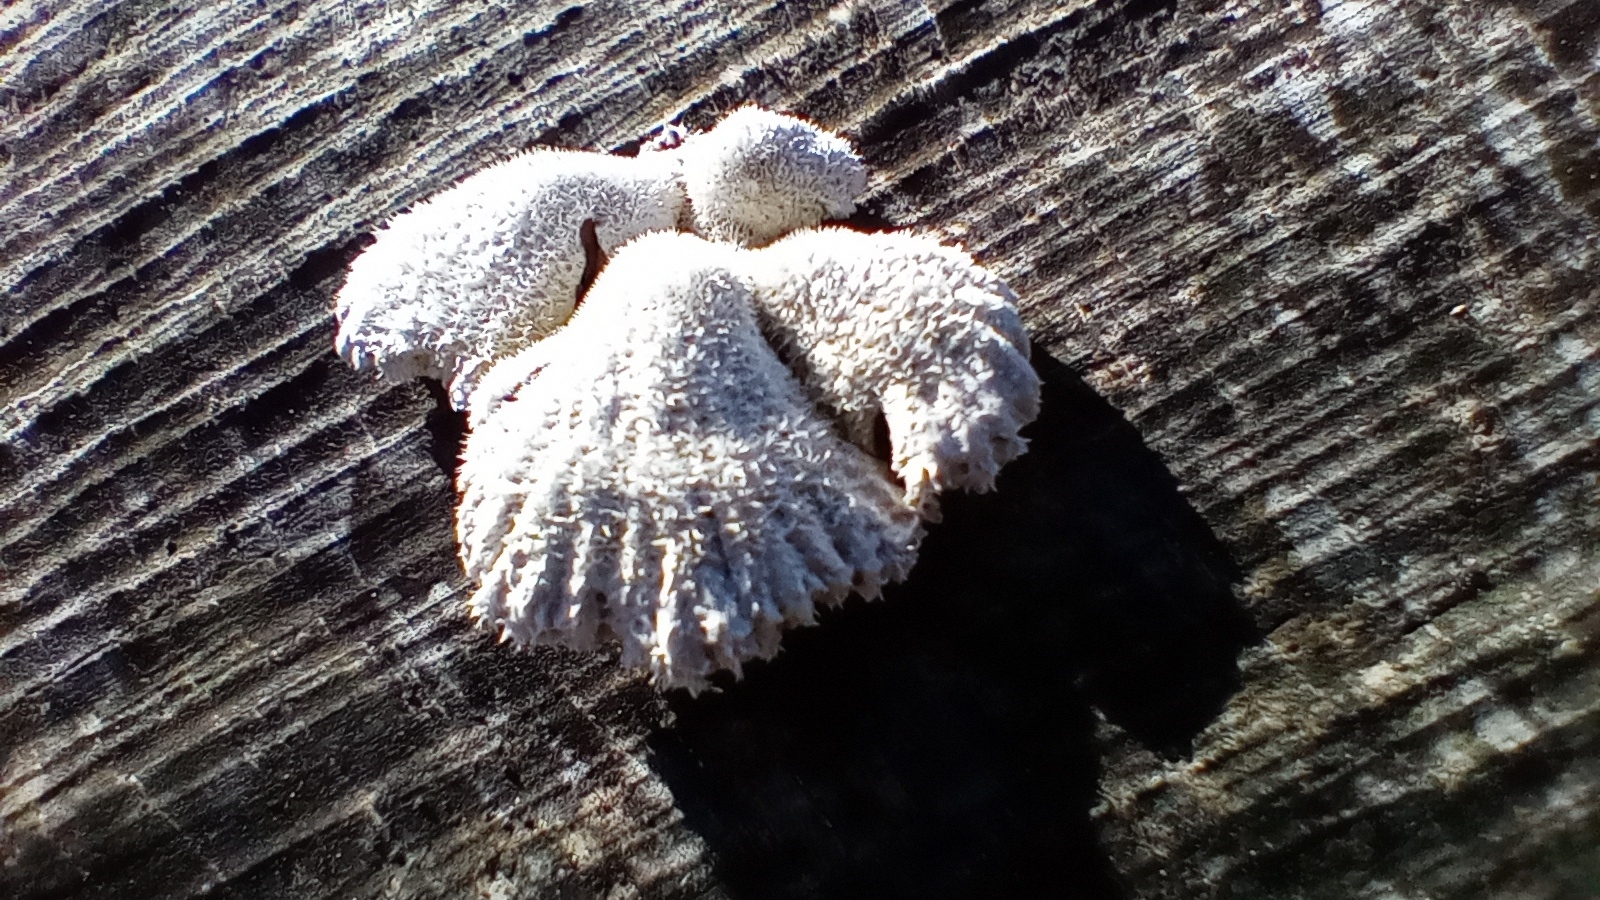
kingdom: Fungi
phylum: Basidiomycota
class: Agaricomycetes
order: Agaricales
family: Schizophyllaceae
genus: Schizophyllum
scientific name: Schizophyllum commune
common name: Common porecrust
